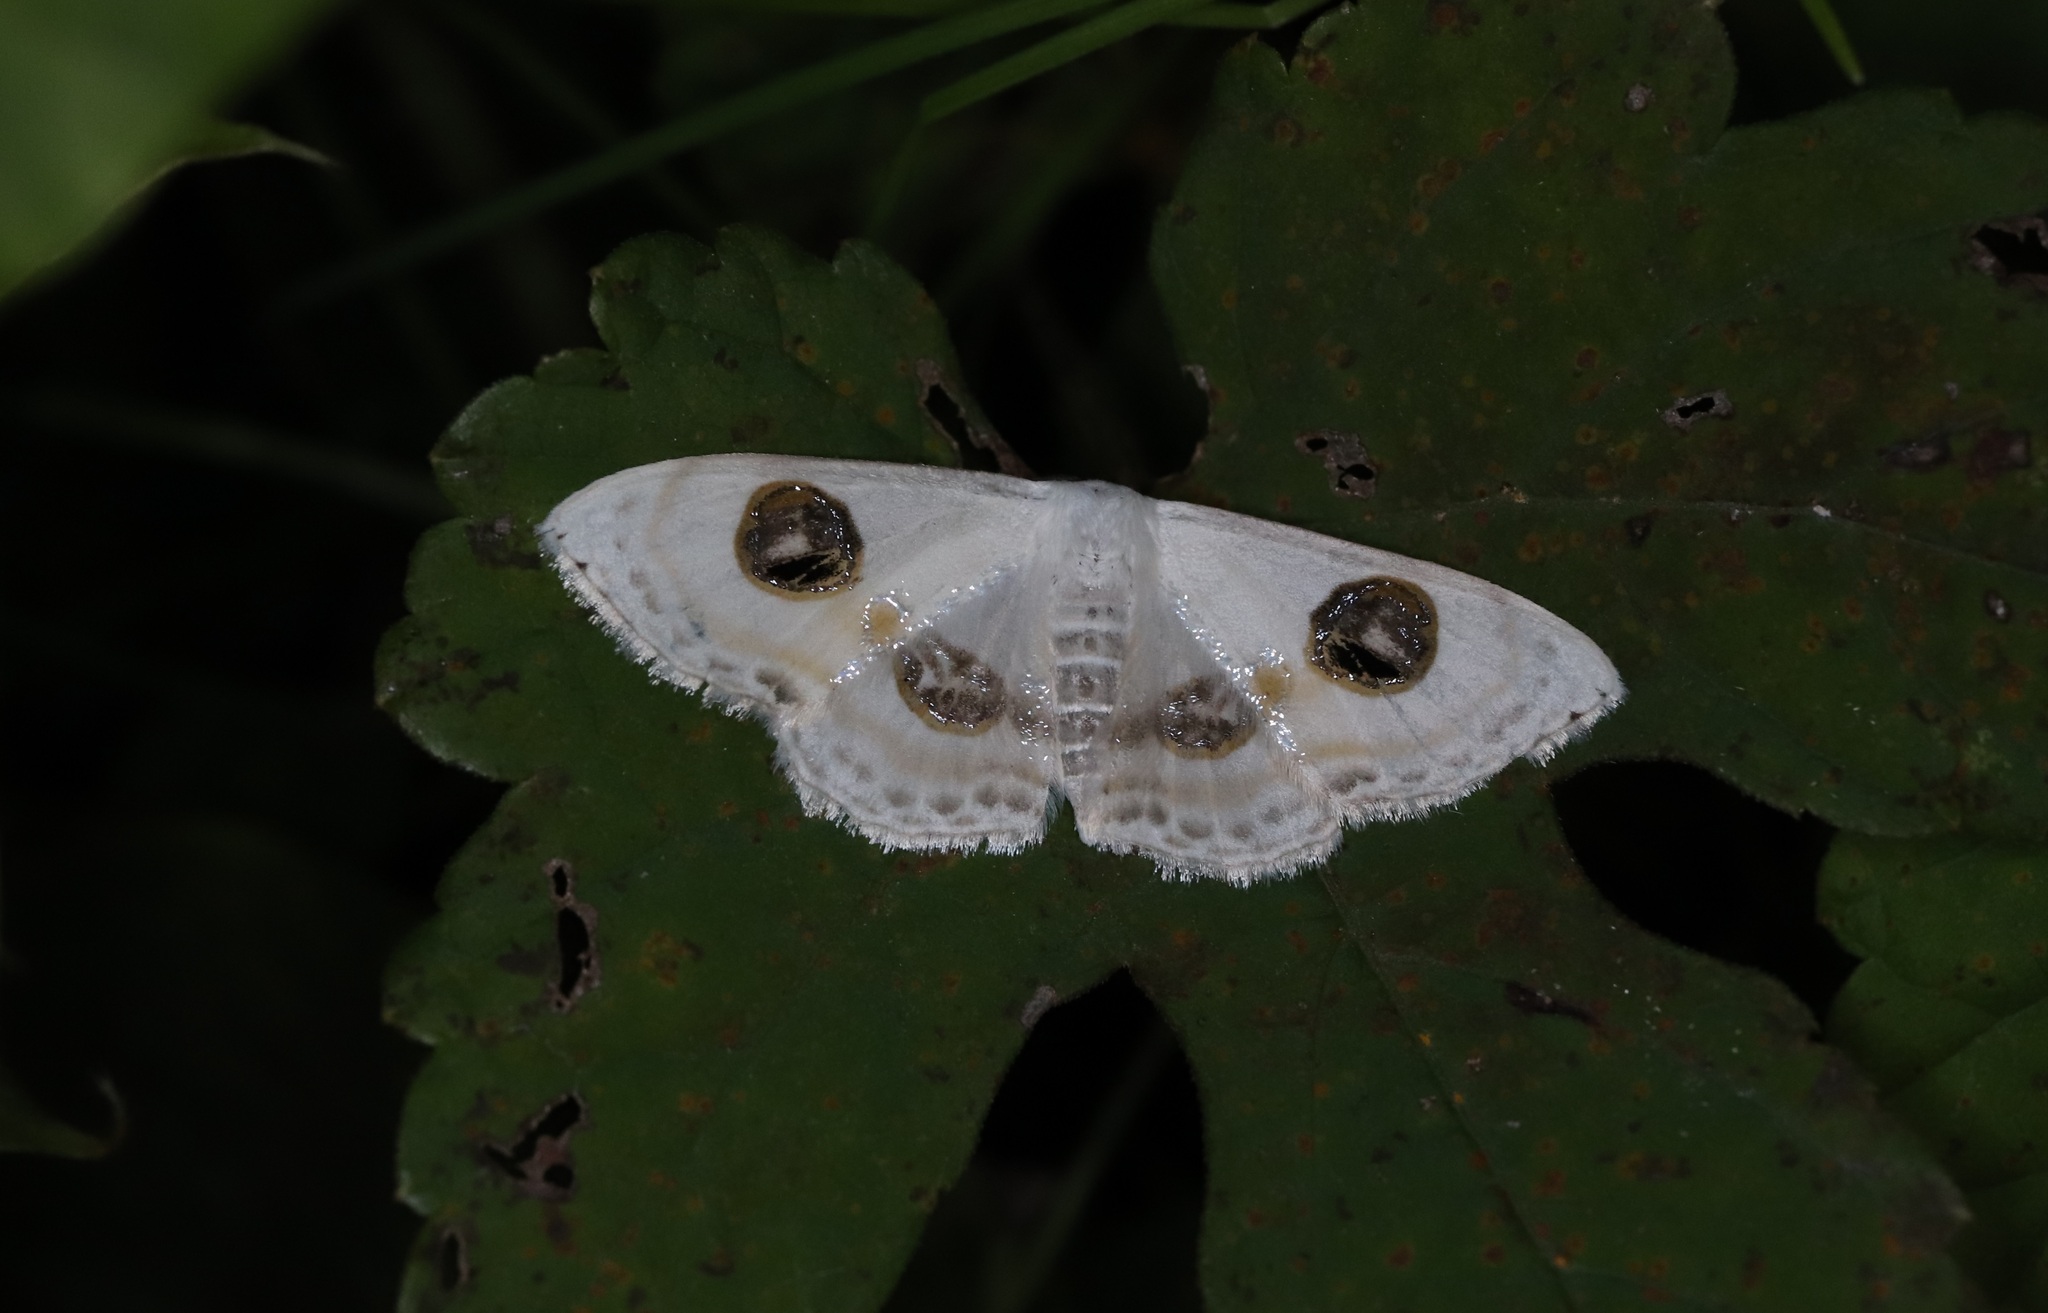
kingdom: Animalia
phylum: Arthropoda
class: Insecta
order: Lepidoptera
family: Geometridae
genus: Problepsis
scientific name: Problepsis albidior
